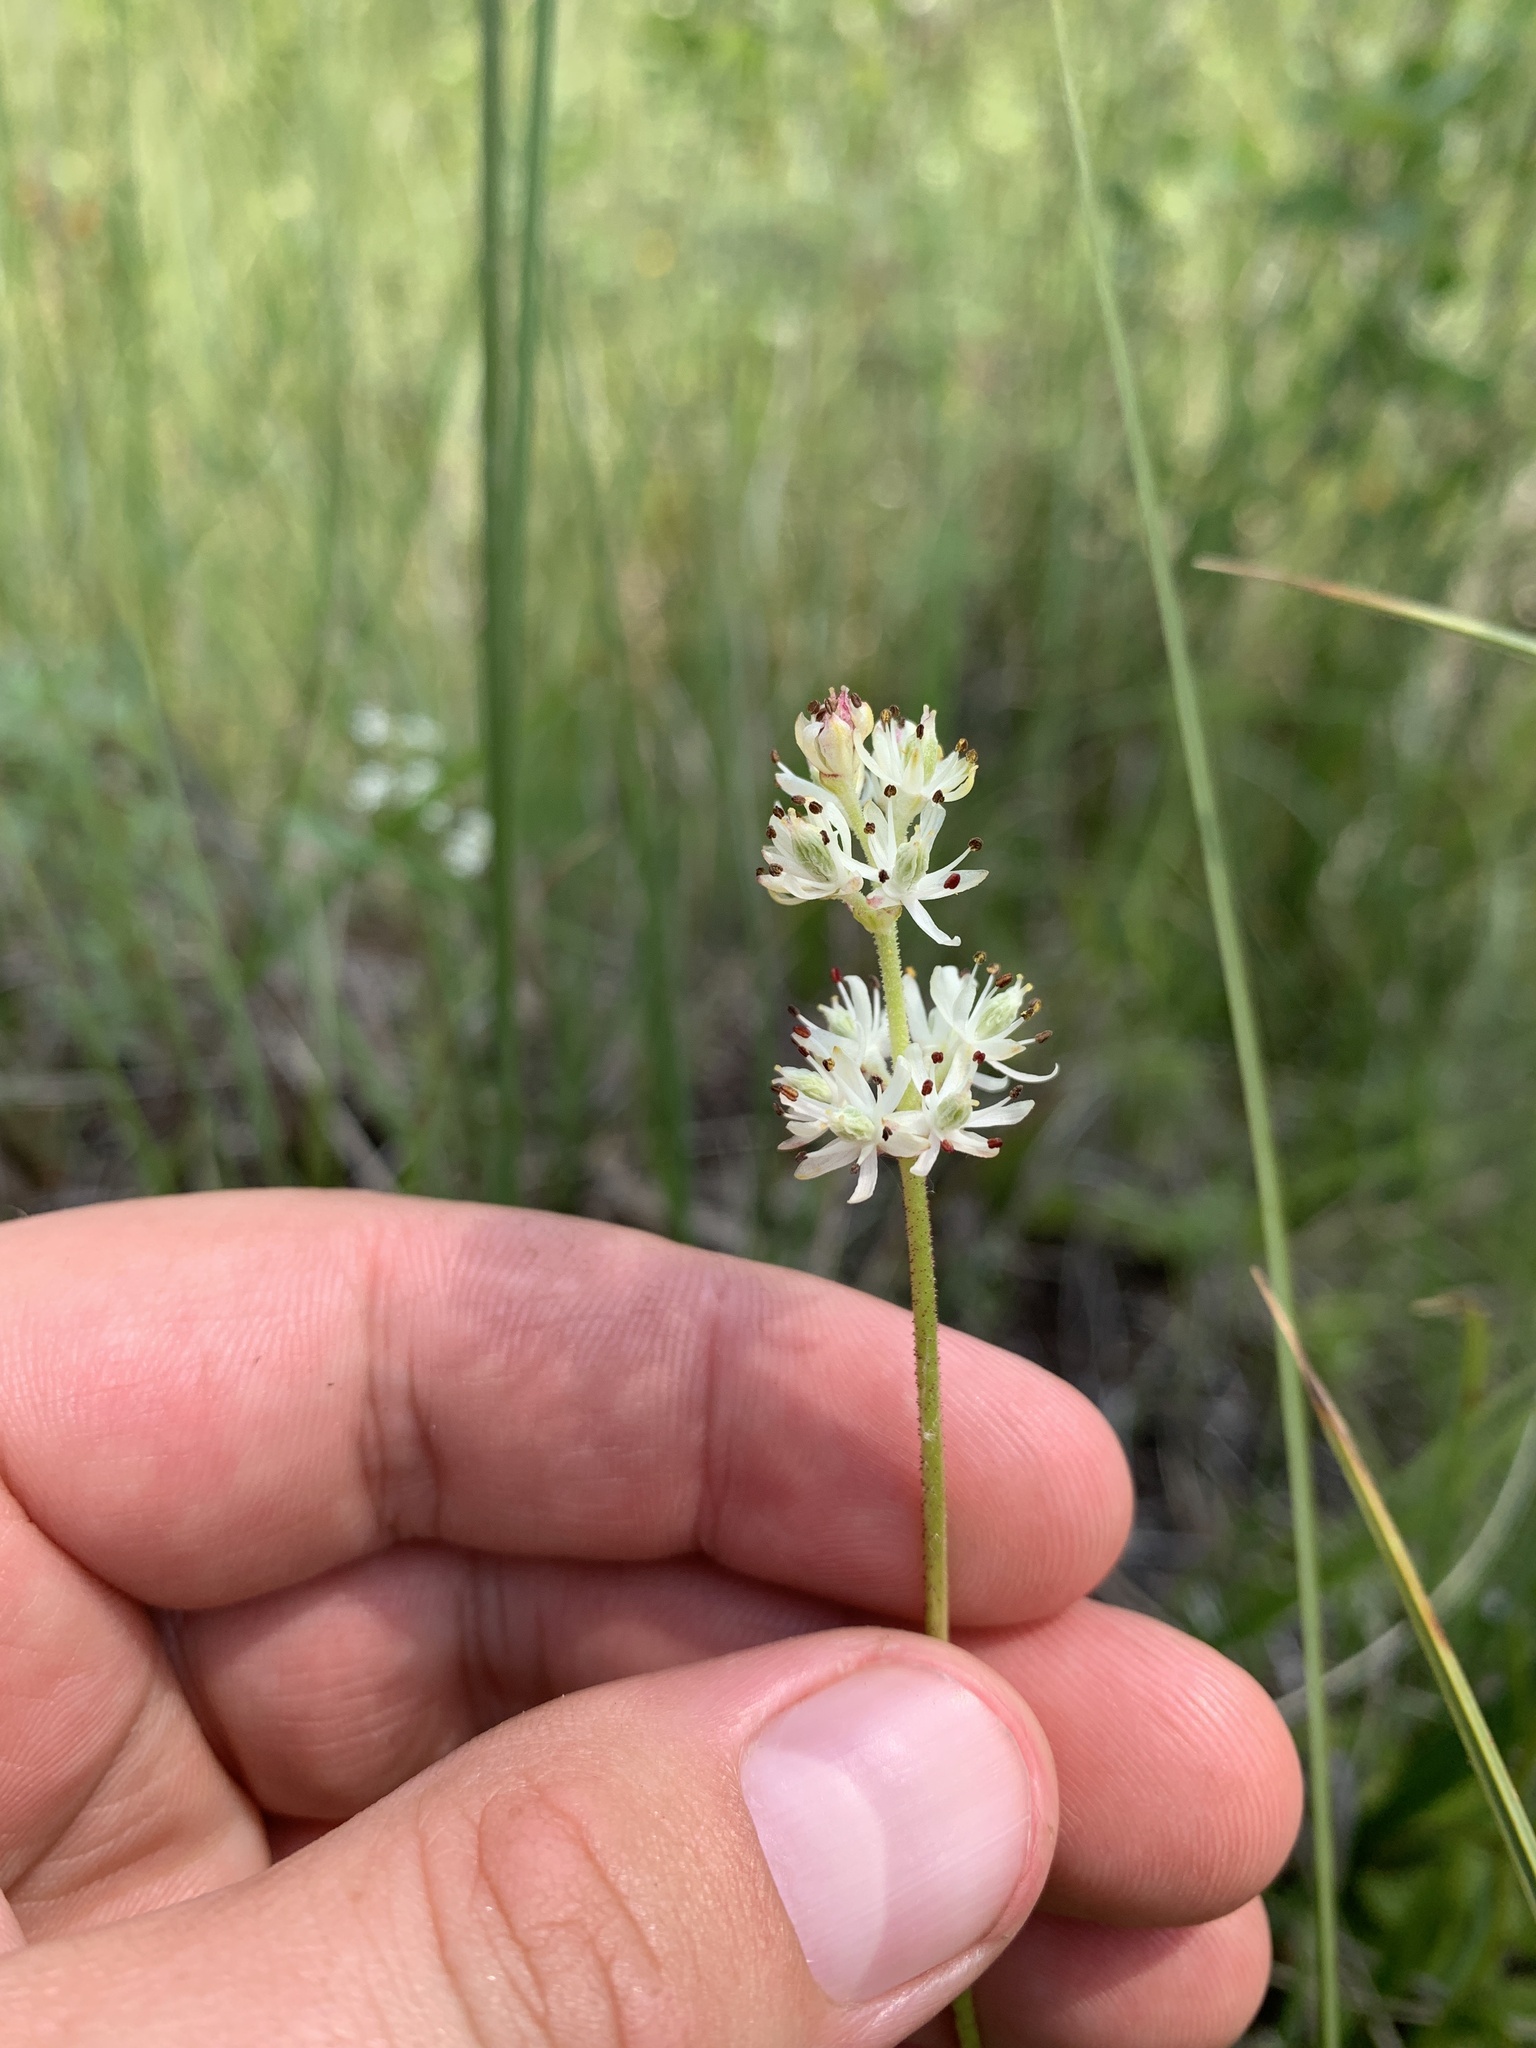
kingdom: Plantae
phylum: Tracheophyta
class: Liliopsida
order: Alismatales
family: Tofieldiaceae
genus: Triantha
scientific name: Triantha glutinosa
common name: Glutinous tofieldia
